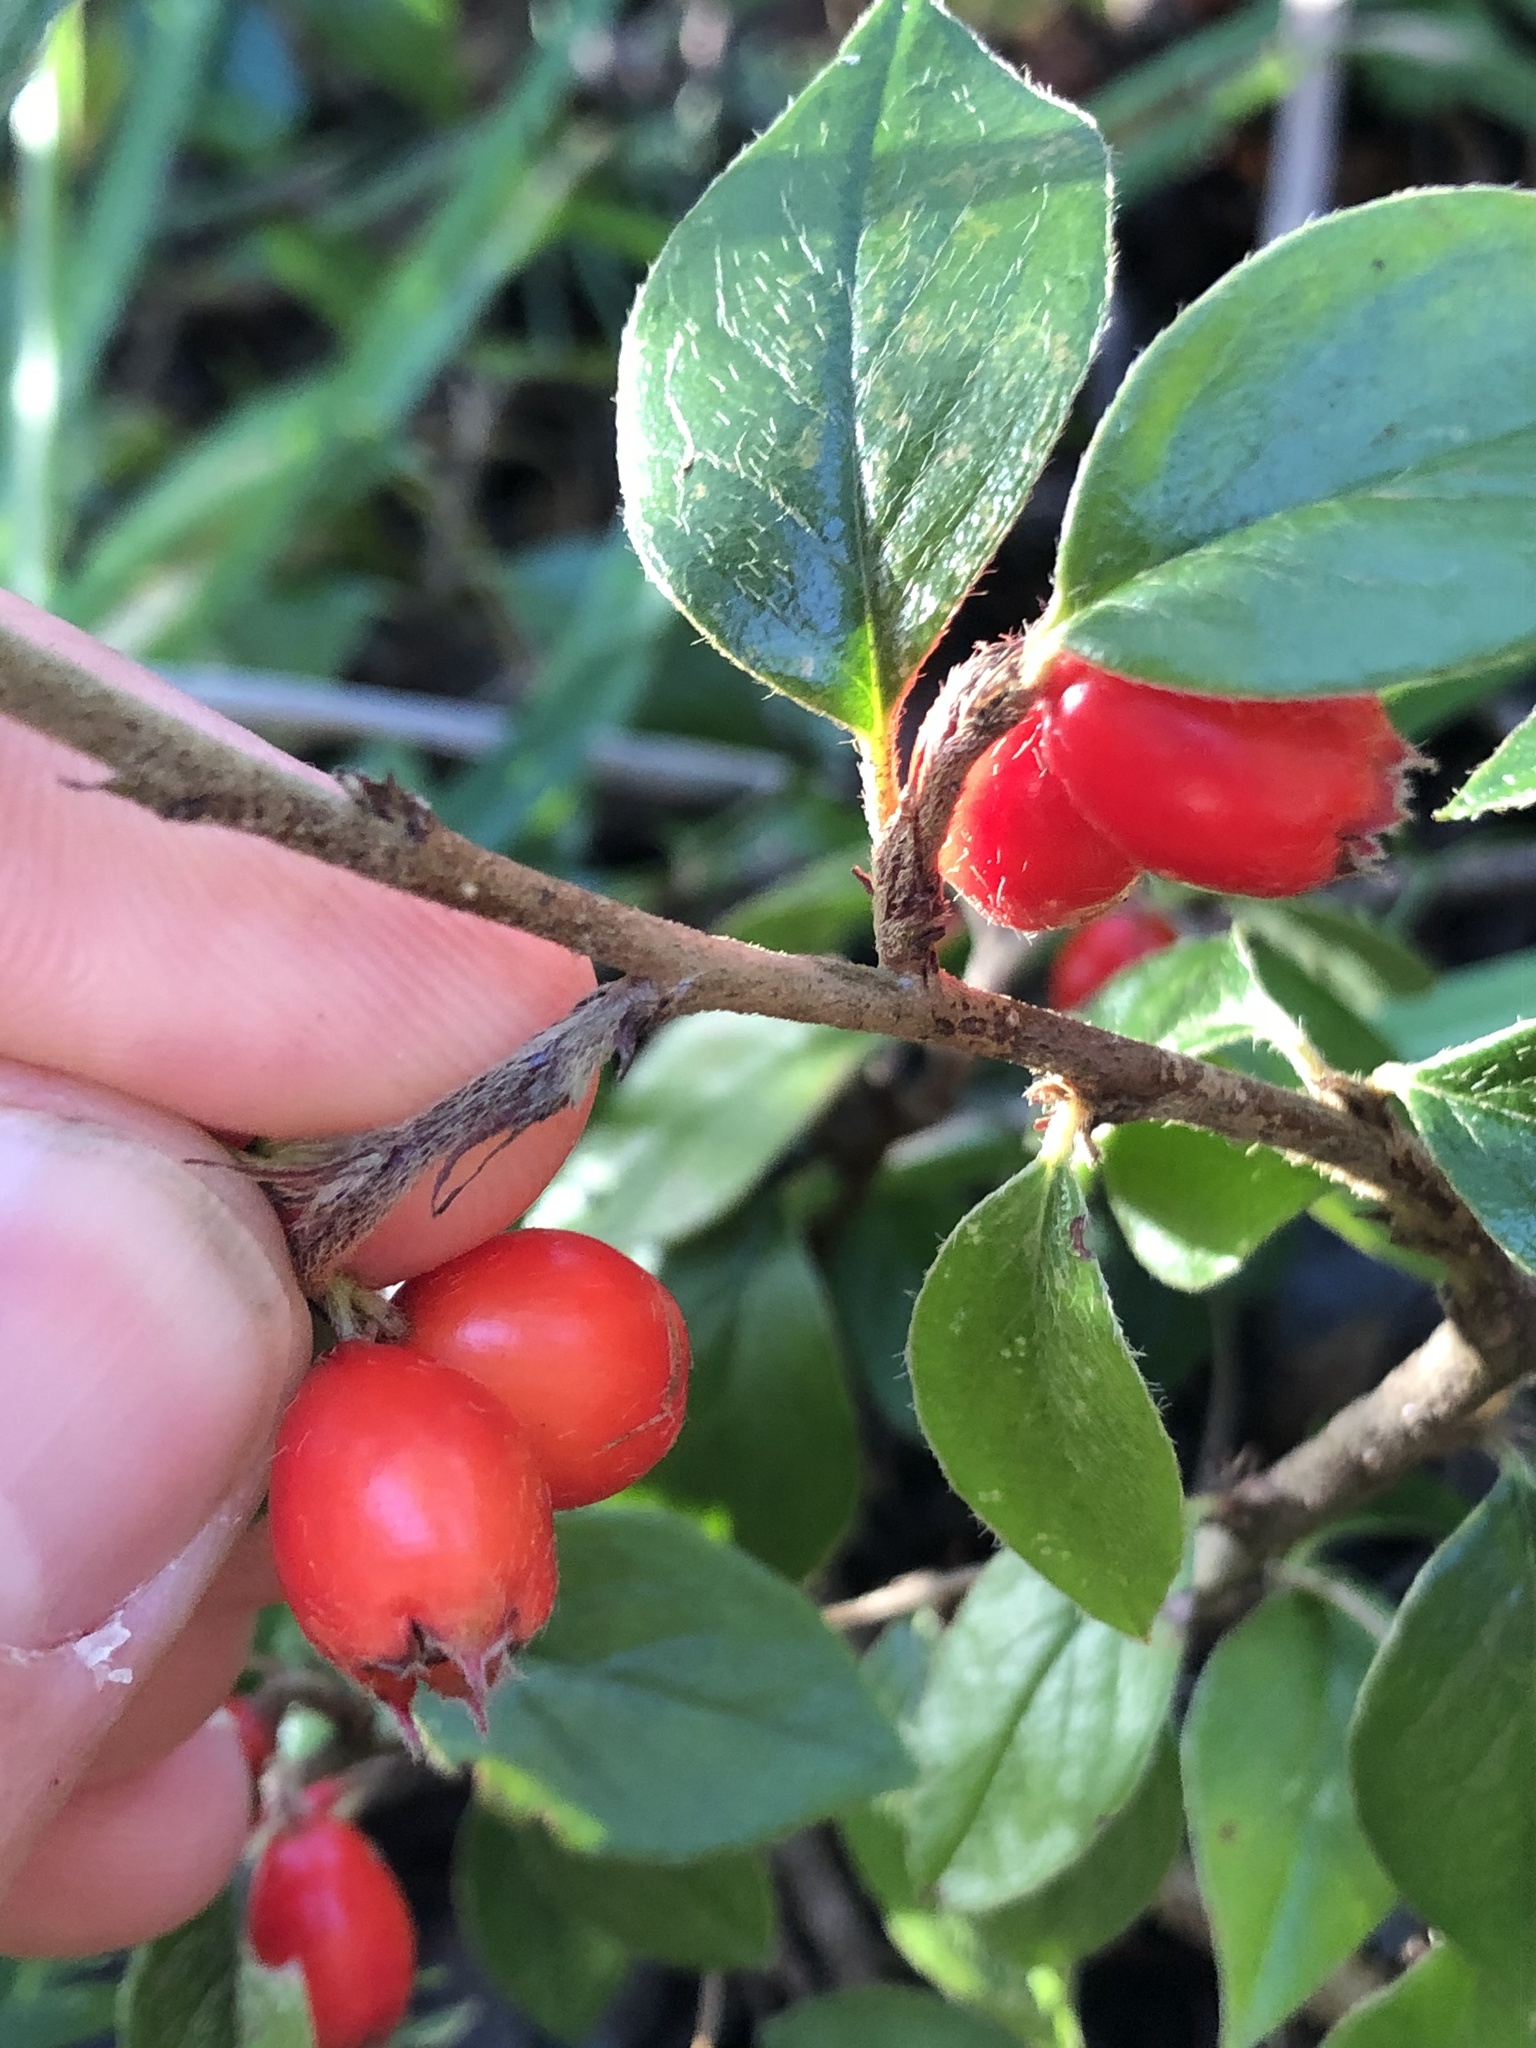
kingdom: Plantae
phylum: Tracheophyta
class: Magnoliopsida
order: Rosales
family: Rosaceae
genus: Cotoneaster
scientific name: Cotoneaster simonsii
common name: Himalayan cotoneaster
